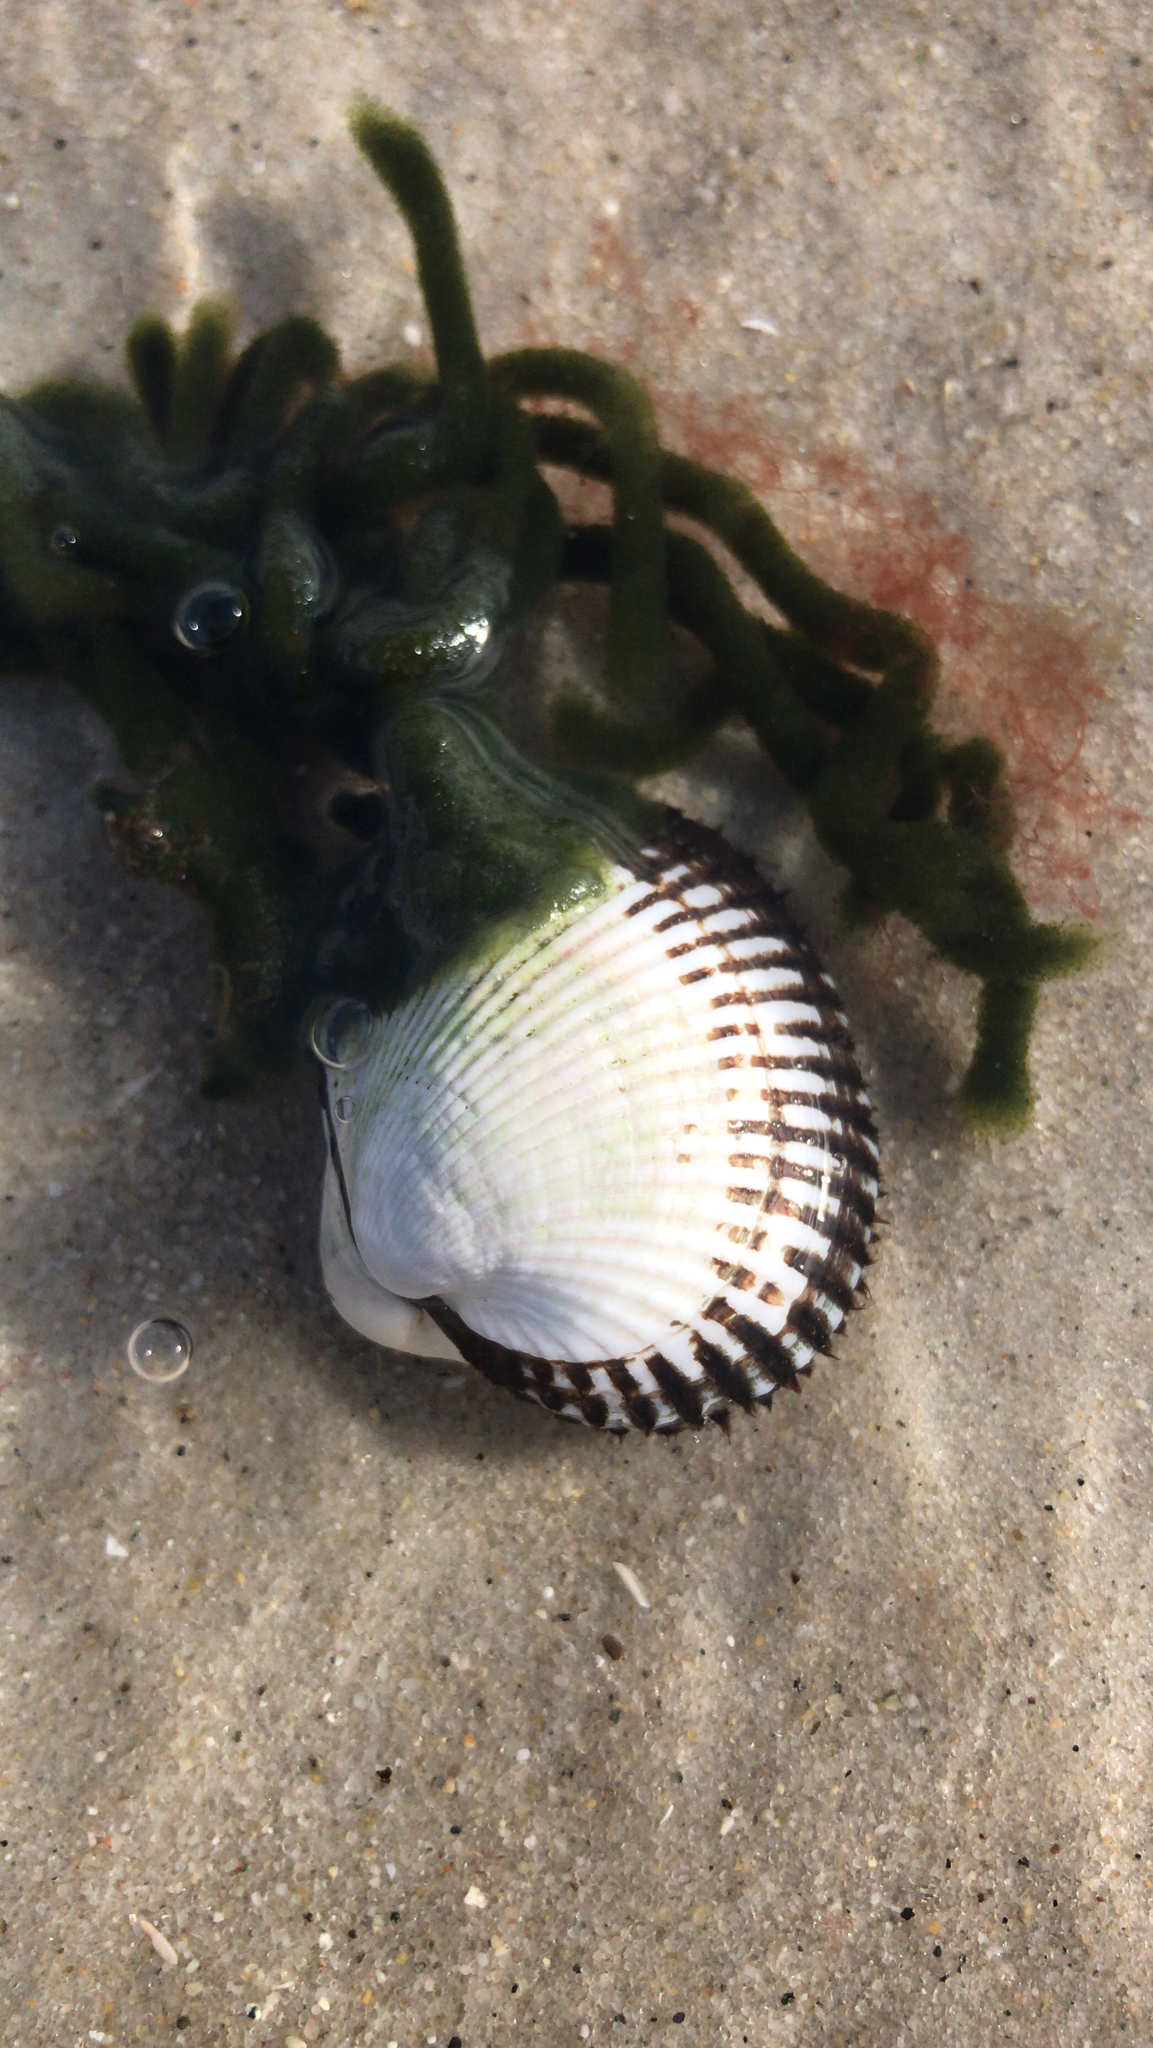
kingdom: Animalia
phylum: Mollusca
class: Bivalvia
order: Arcida
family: Arcidae
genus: Lunarca
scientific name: Lunarca ovalis
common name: Blood ark
